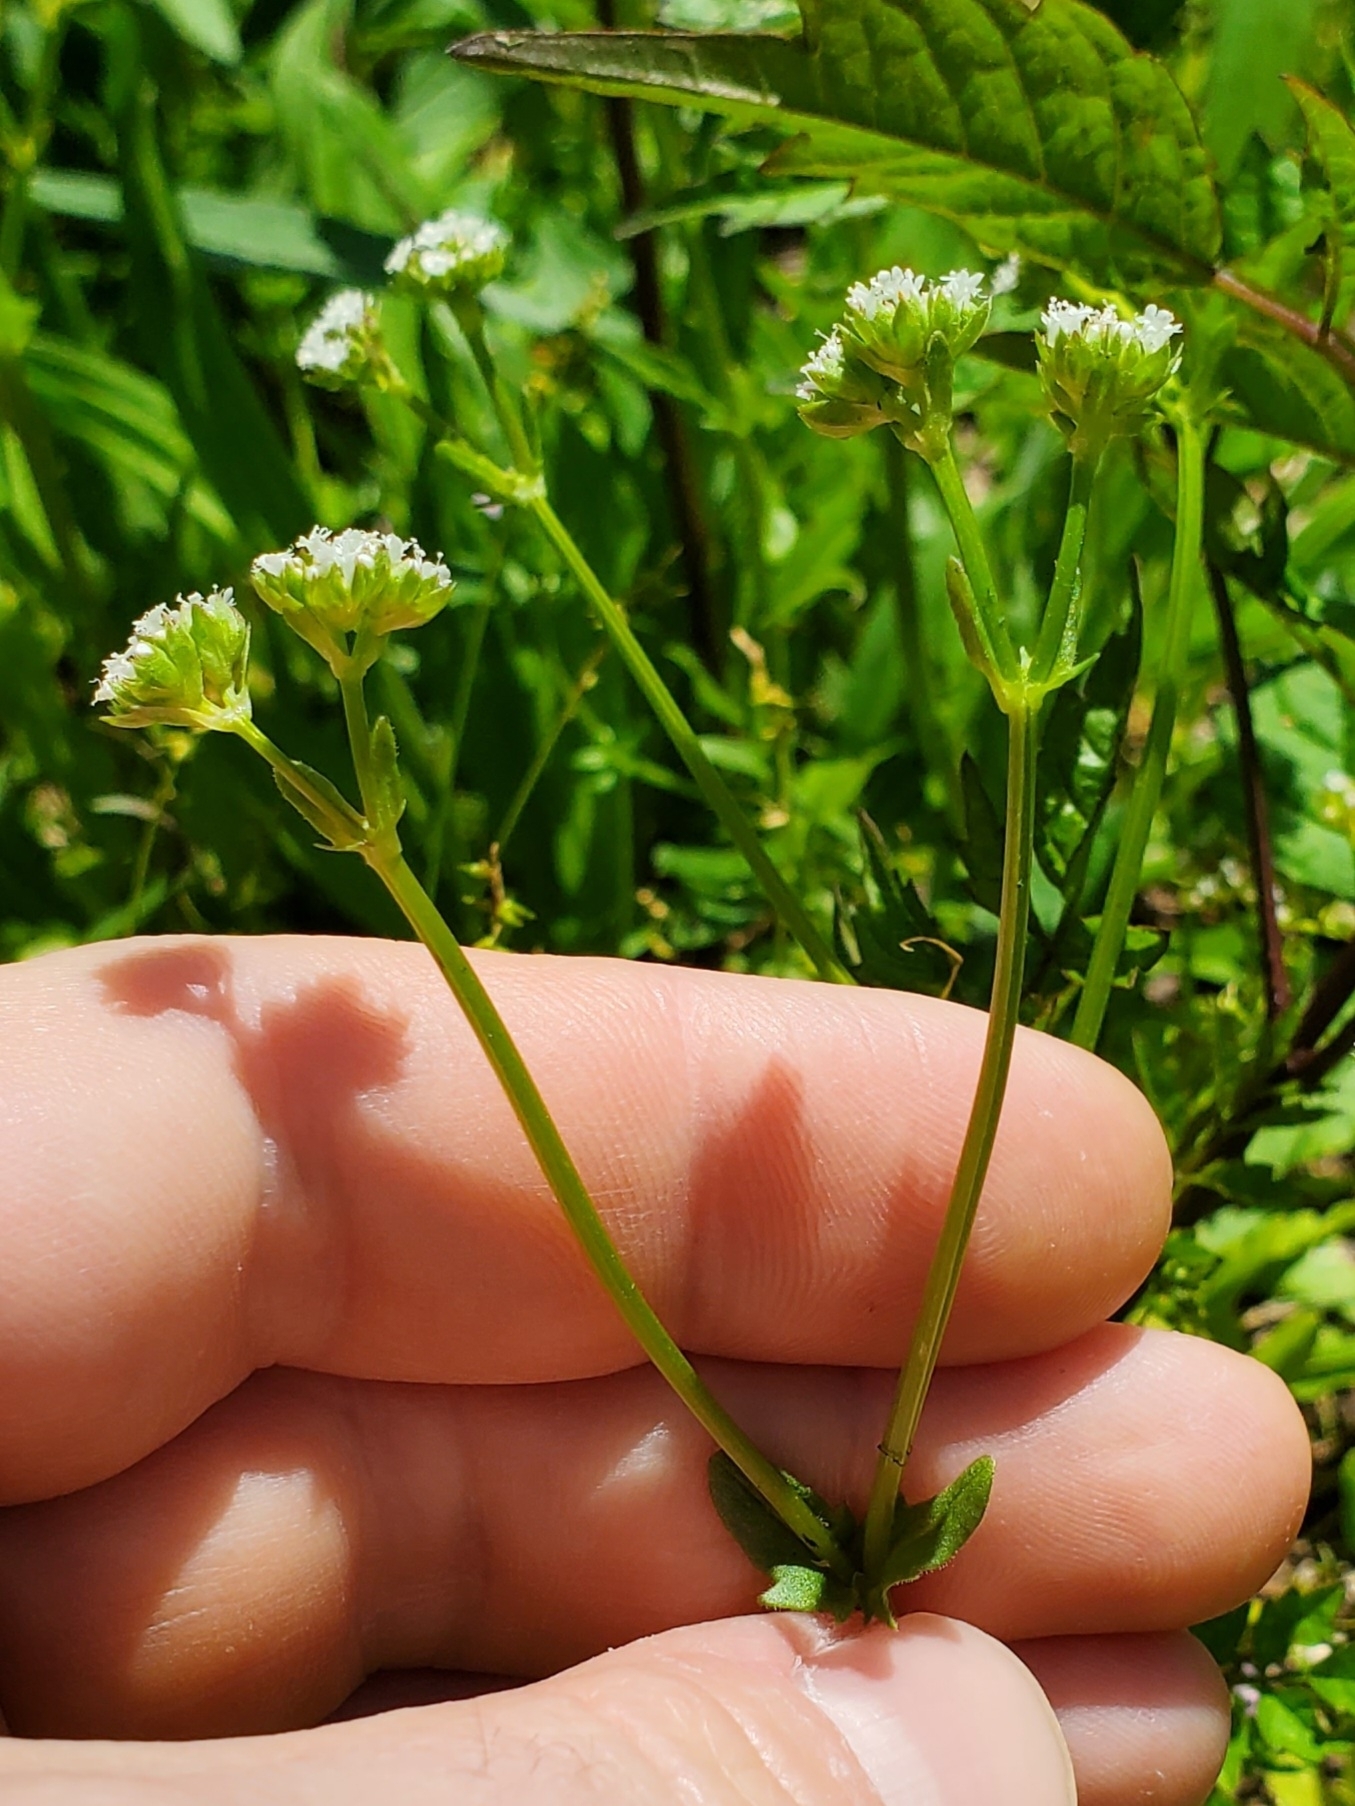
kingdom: Plantae
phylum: Tracheophyta
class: Magnoliopsida
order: Dipsacales
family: Caprifoliaceae
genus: Valerianella
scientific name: Valerianella radiata
